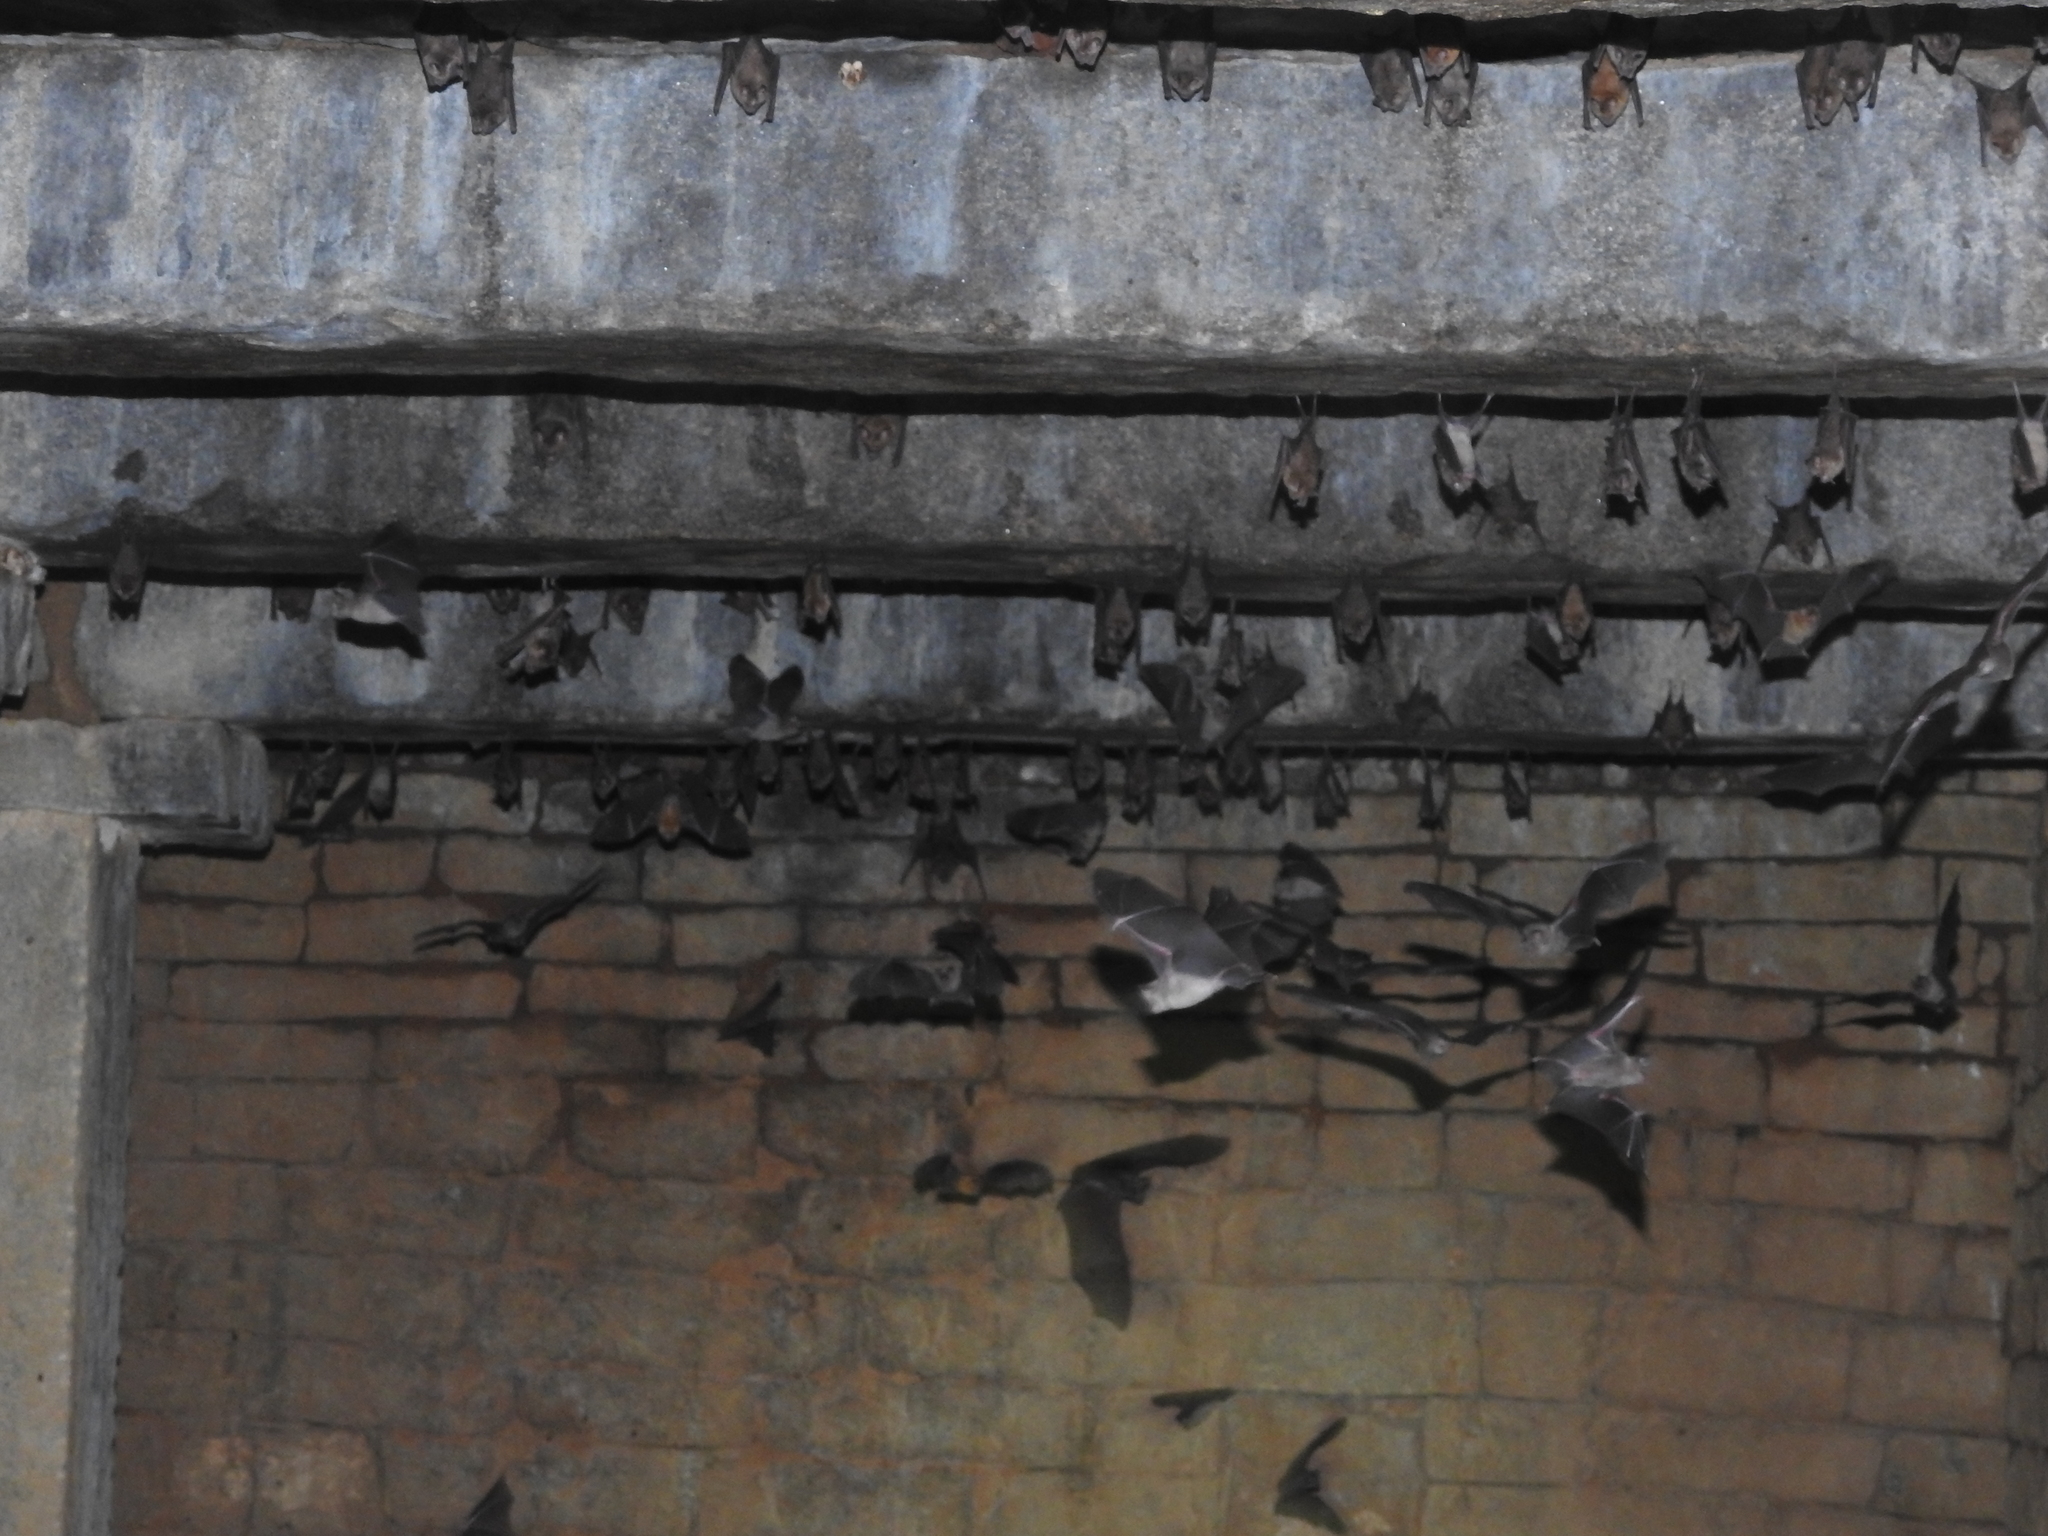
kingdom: Animalia
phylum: Chordata
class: Mammalia
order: Chiroptera
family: Hipposideridae
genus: Hipposideros
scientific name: Hipposideros lankadiva
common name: Indian leaf-nosed bat
